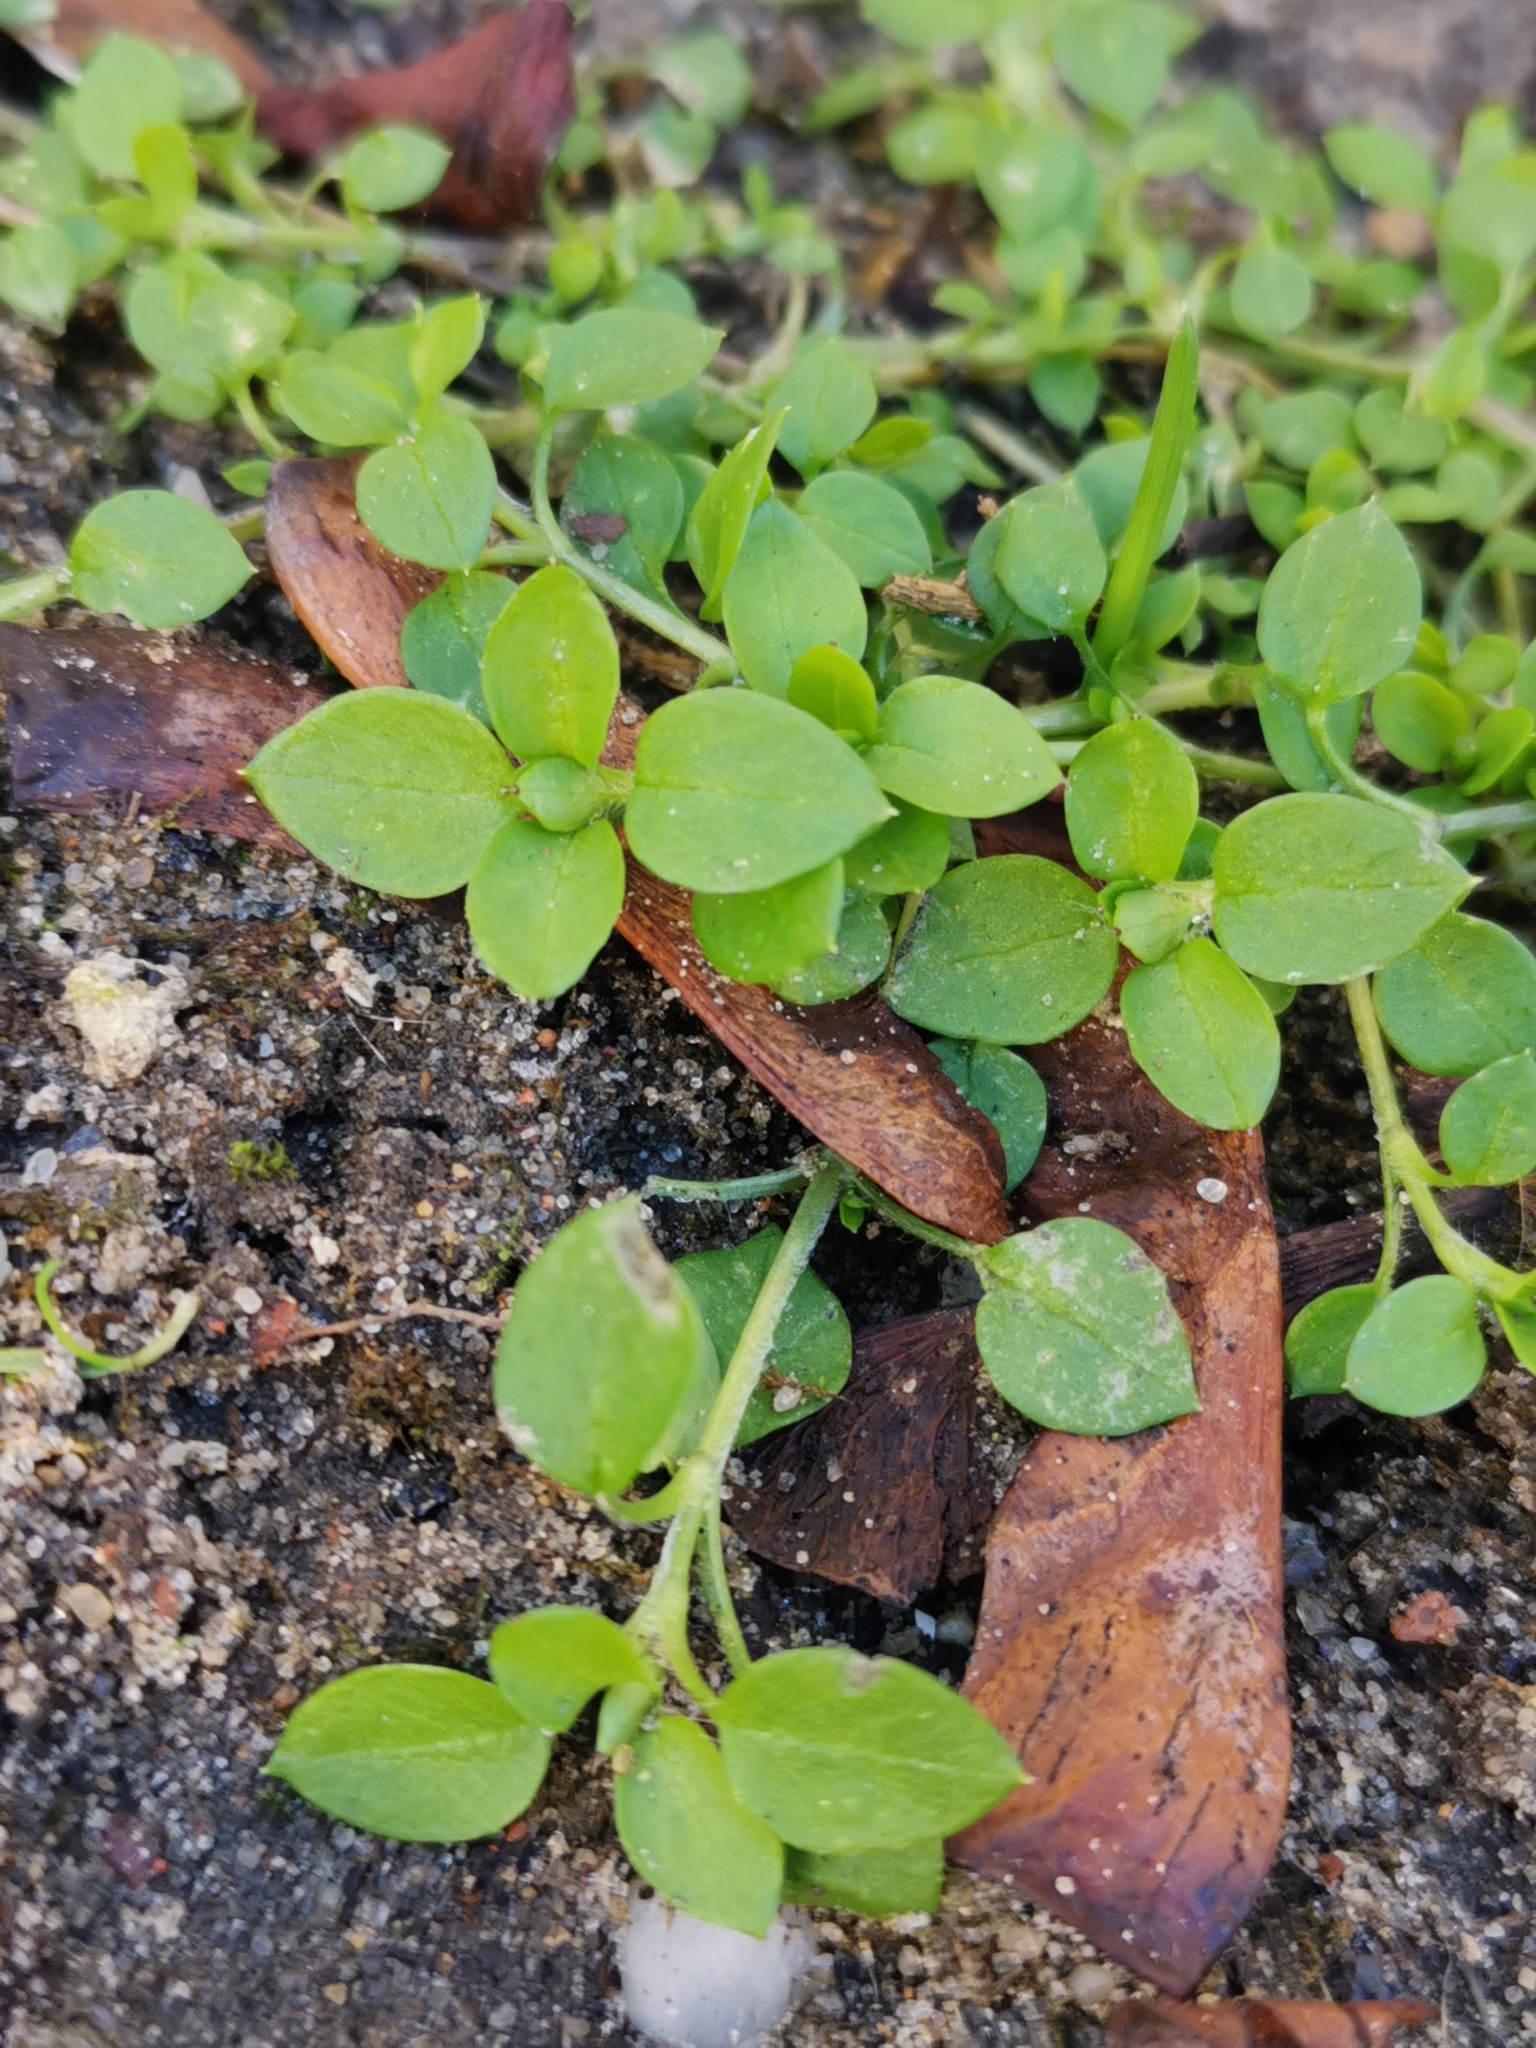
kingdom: Plantae
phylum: Tracheophyta
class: Magnoliopsida
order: Caryophyllales
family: Caryophyllaceae
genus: Stellaria
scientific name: Stellaria media
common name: Common chickweed
